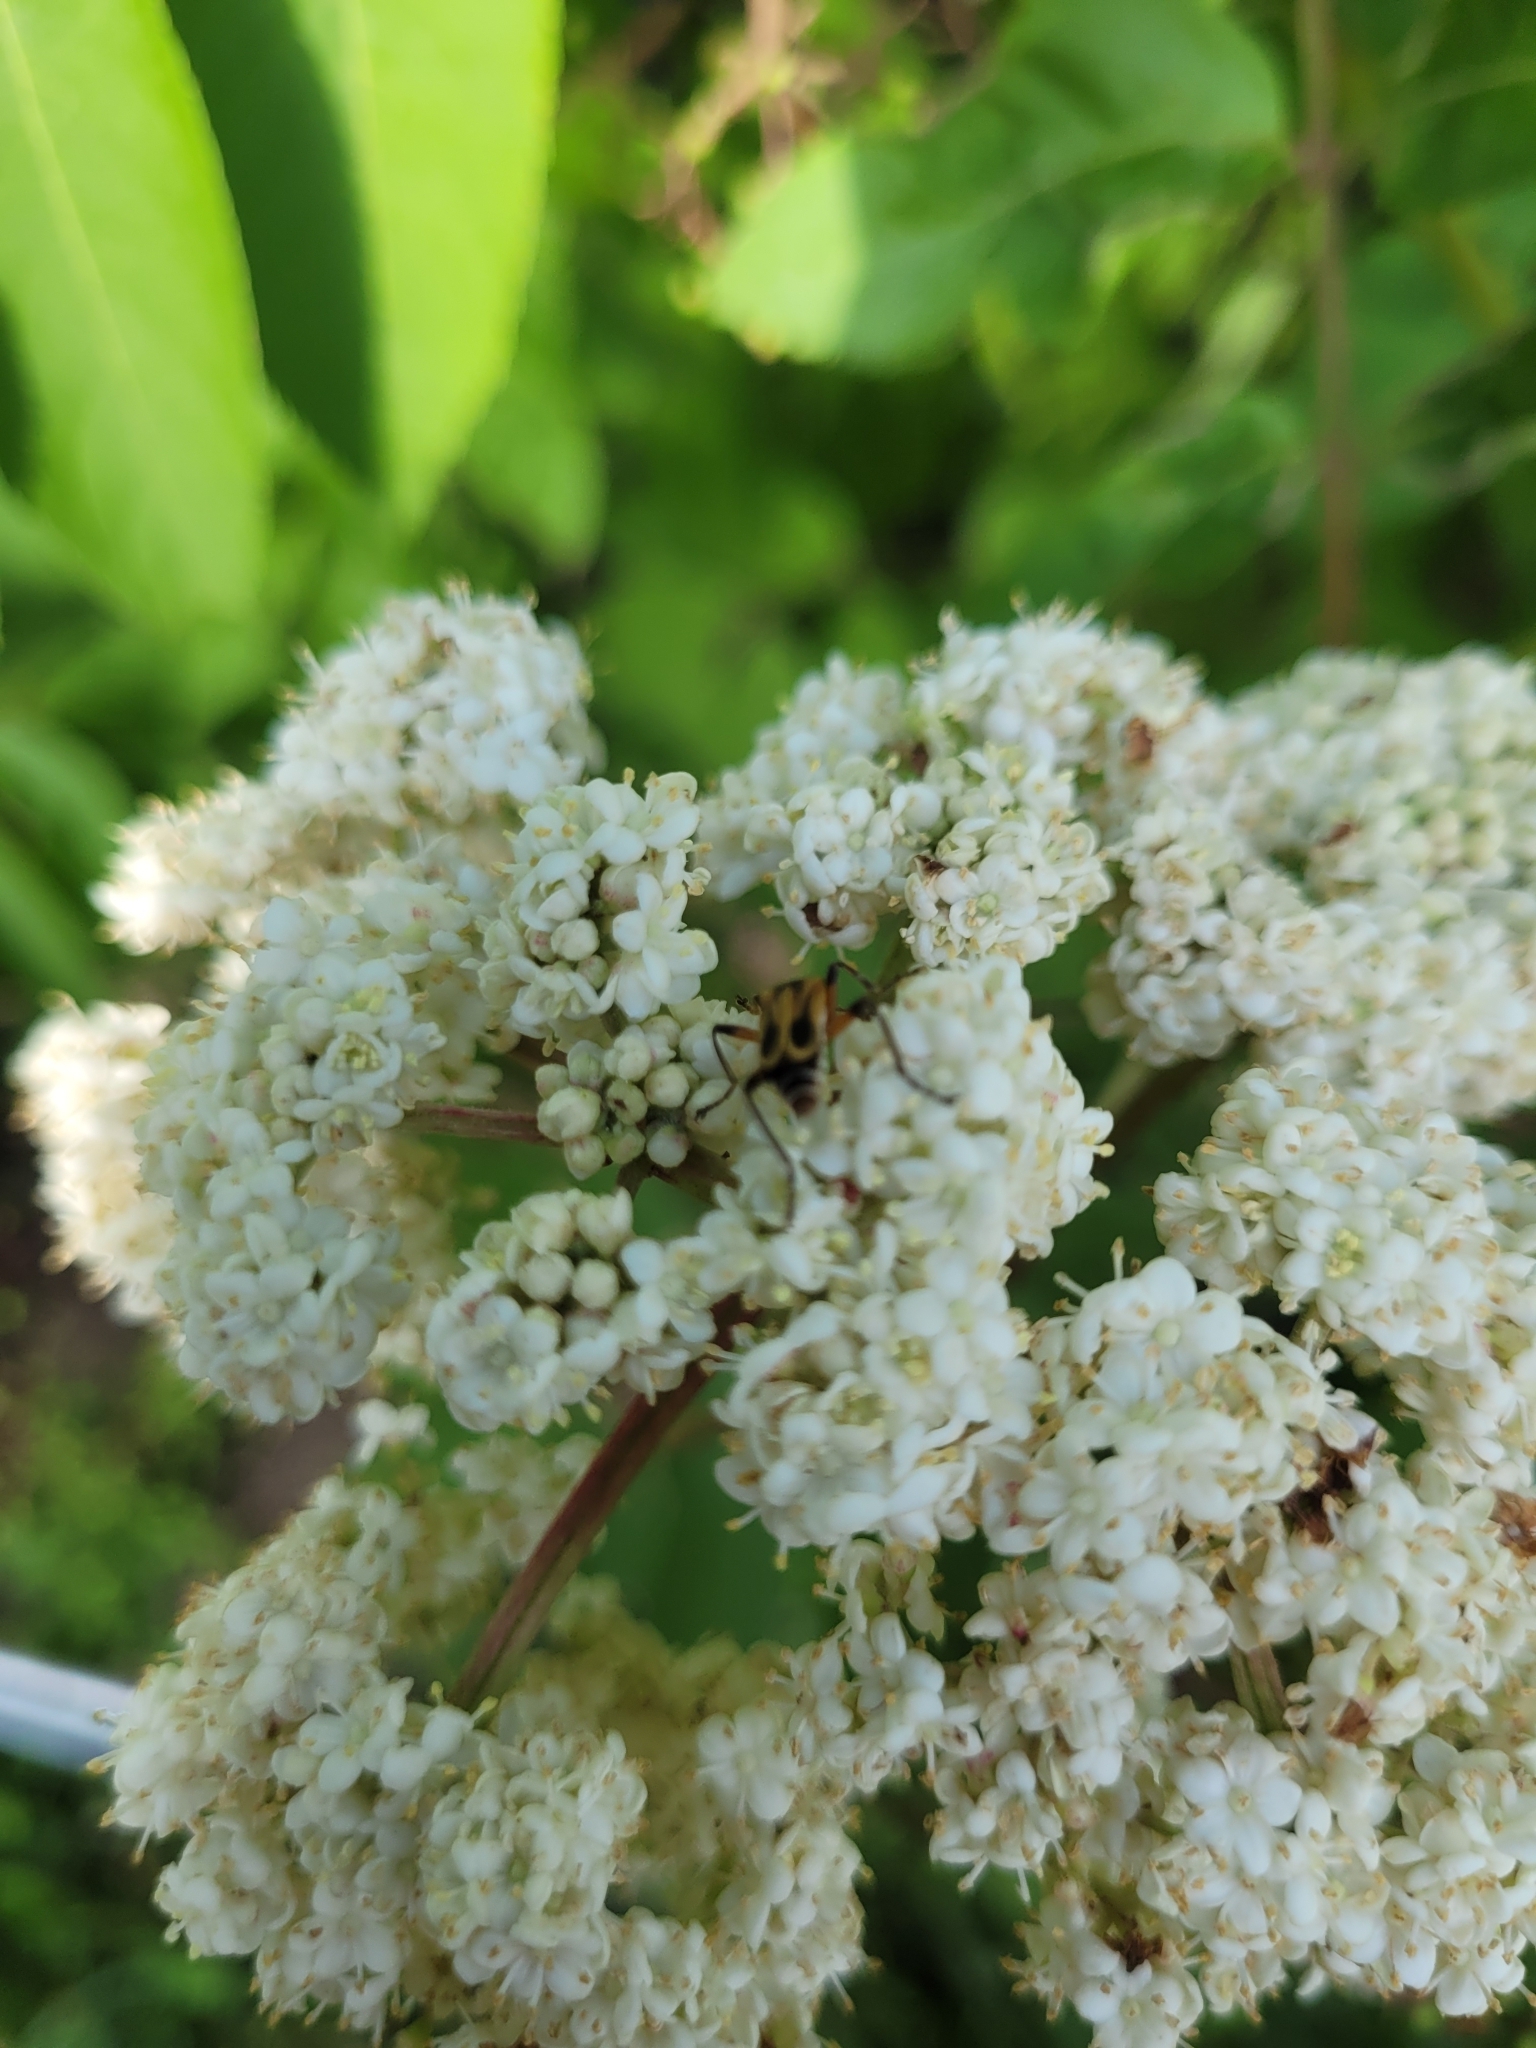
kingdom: Animalia
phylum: Arthropoda
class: Insecta
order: Coleoptera
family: Cantharidae
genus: Chauliognathus
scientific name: Chauliognathus marginatus
